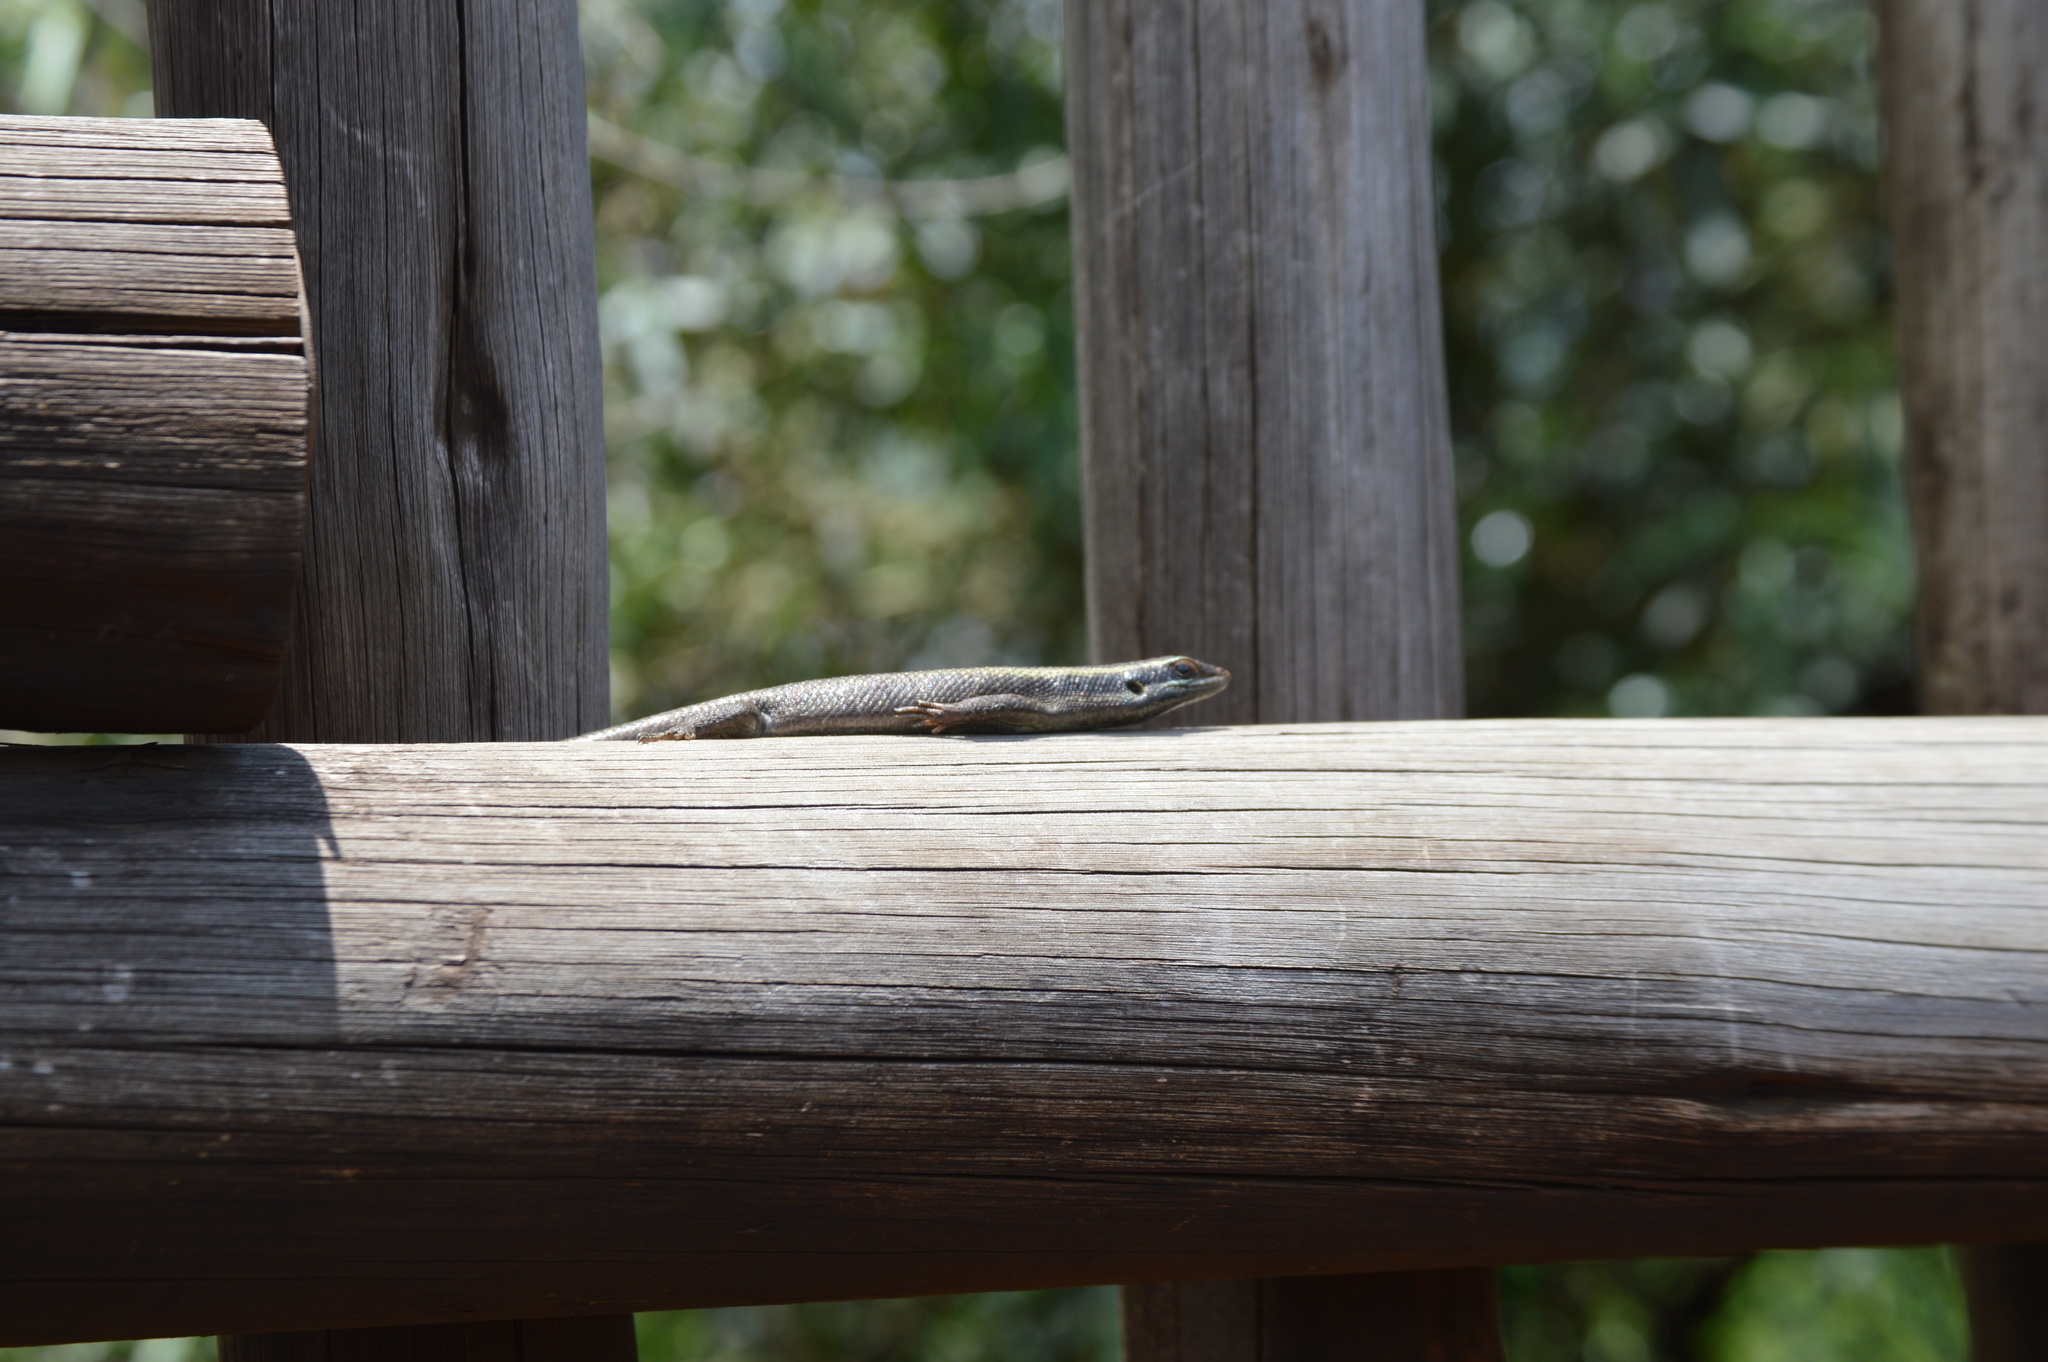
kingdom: Animalia
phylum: Chordata
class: Squamata
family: Scincidae
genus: Trachylepis
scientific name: Trachylepis punctatissima
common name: Montane speckled skink
